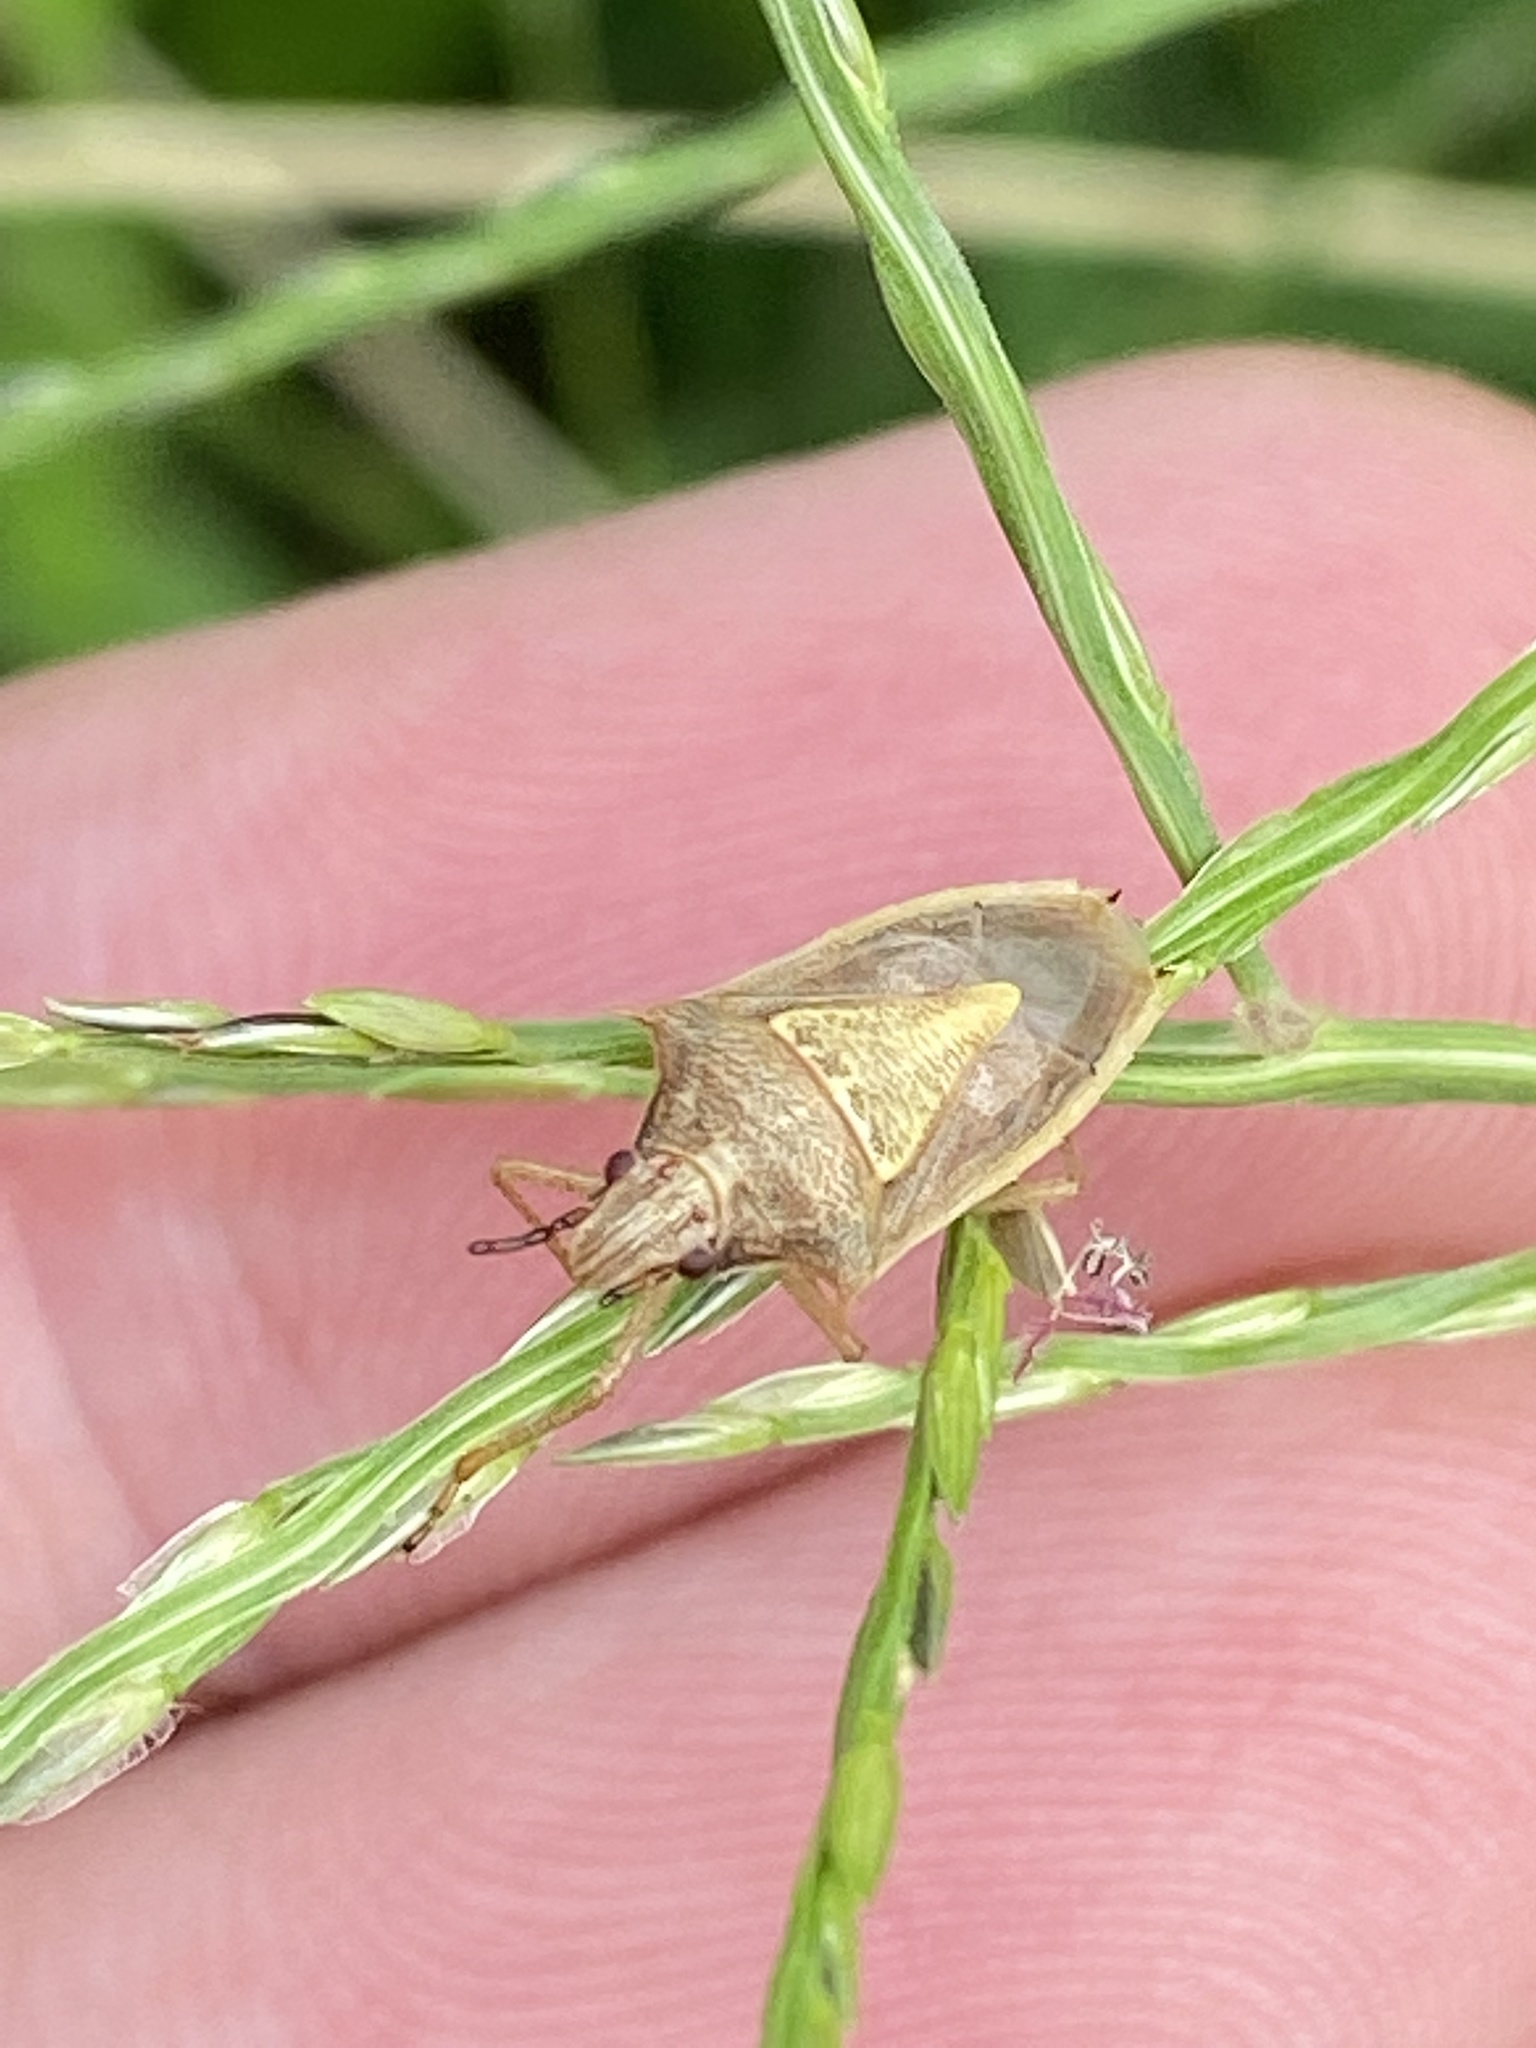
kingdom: Animalia
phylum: Arthropoda
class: Insecta
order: Hemiptera
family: Pentatomidae
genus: Oebalus
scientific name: Oebalus pugnax
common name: Rice stink bug
